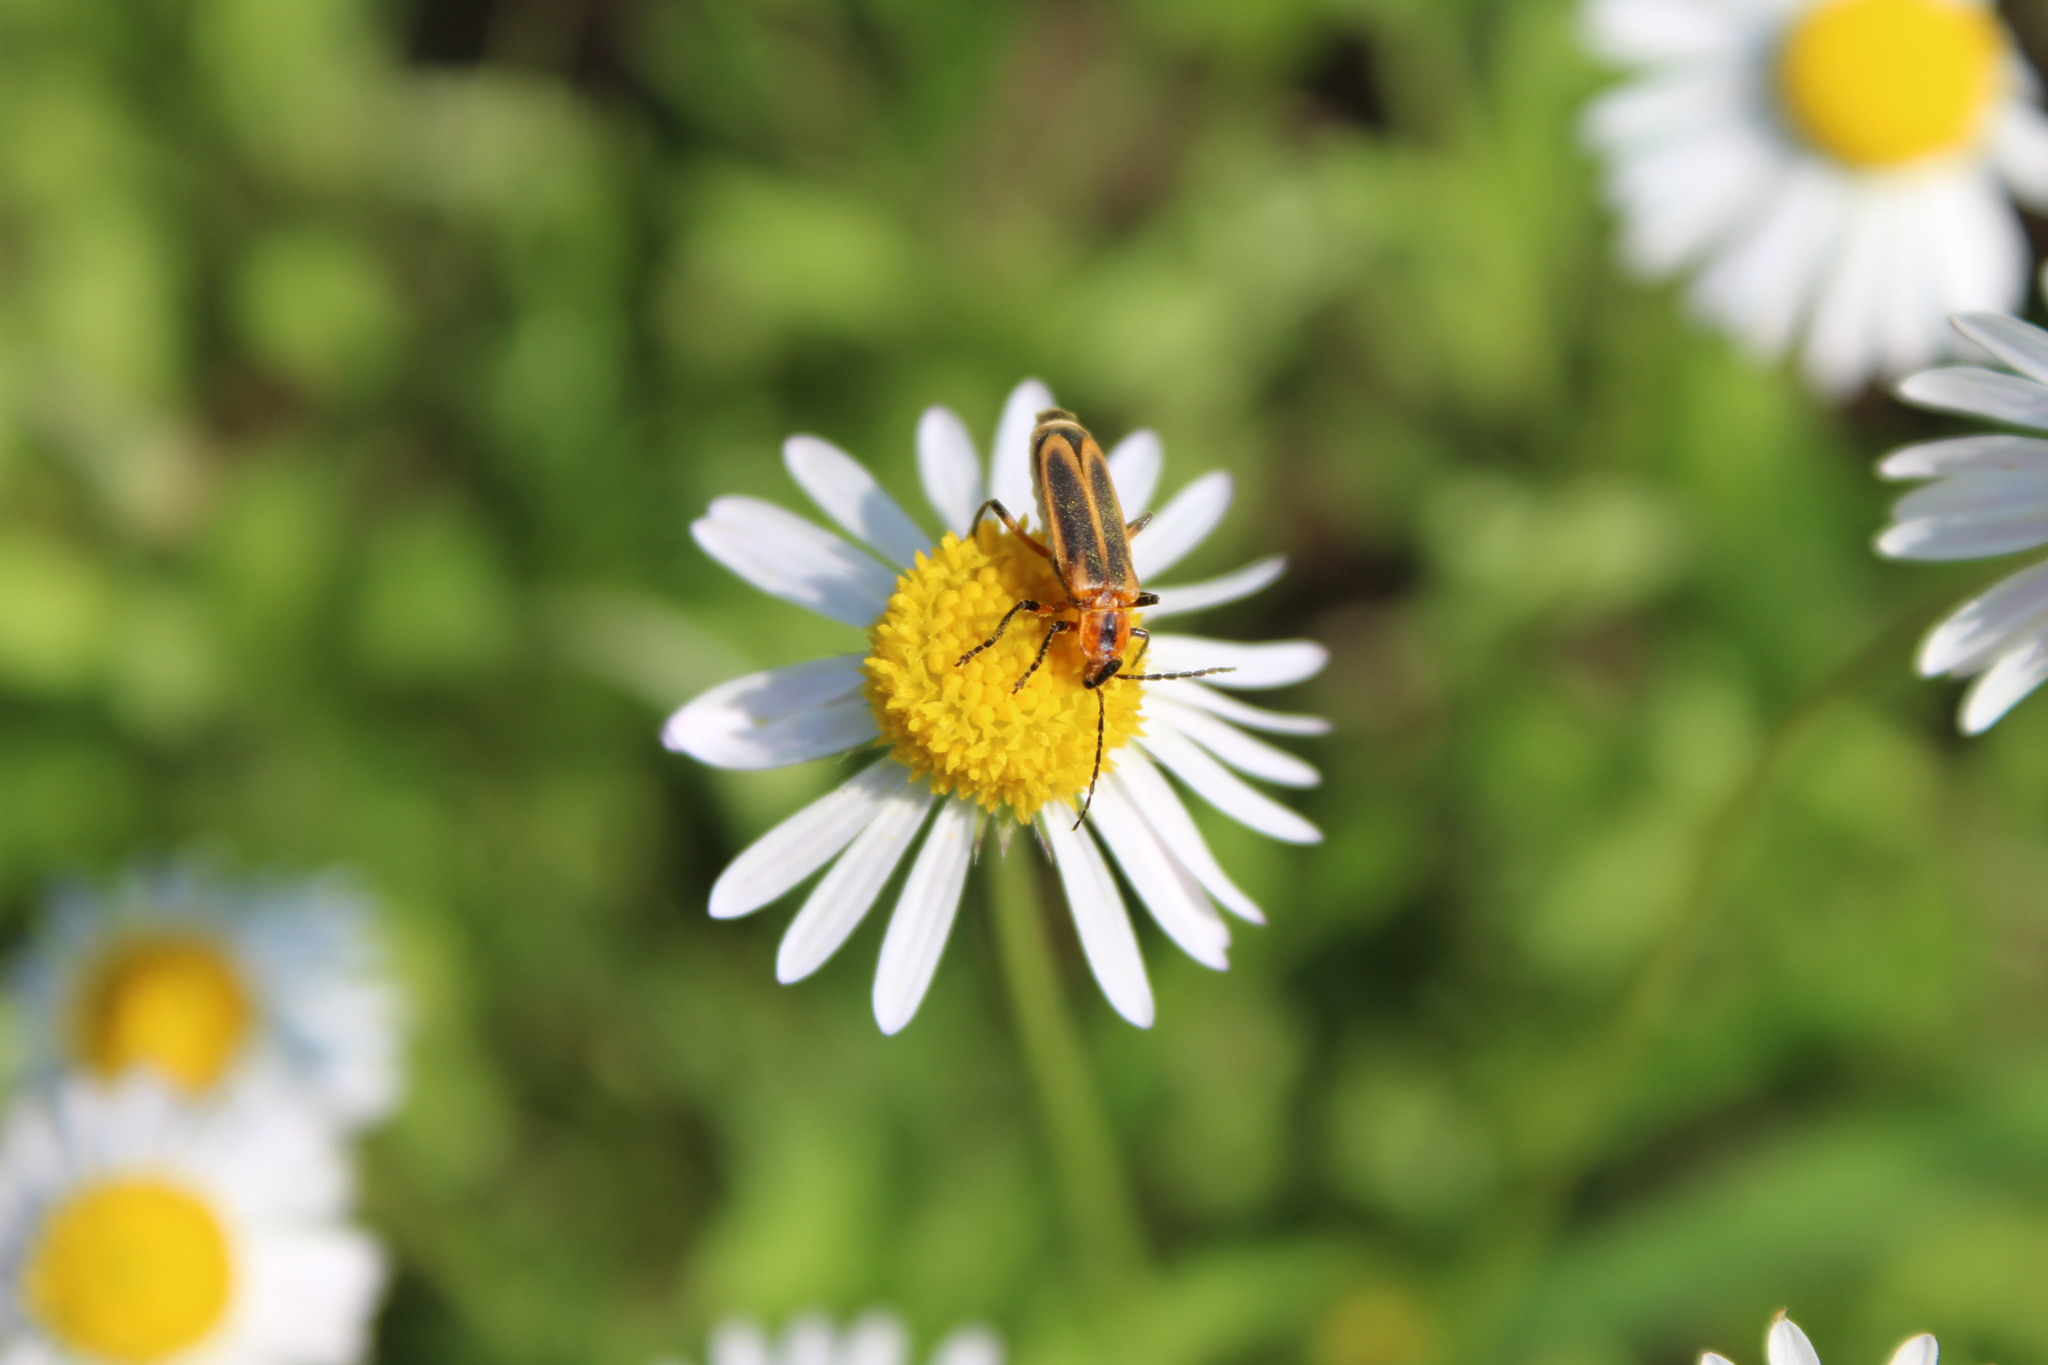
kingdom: Animalia
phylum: Arthropoda
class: Insecta
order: Coleoptera
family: Cantharidae
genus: Chauliognathus
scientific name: Chauliognathus marginatus
